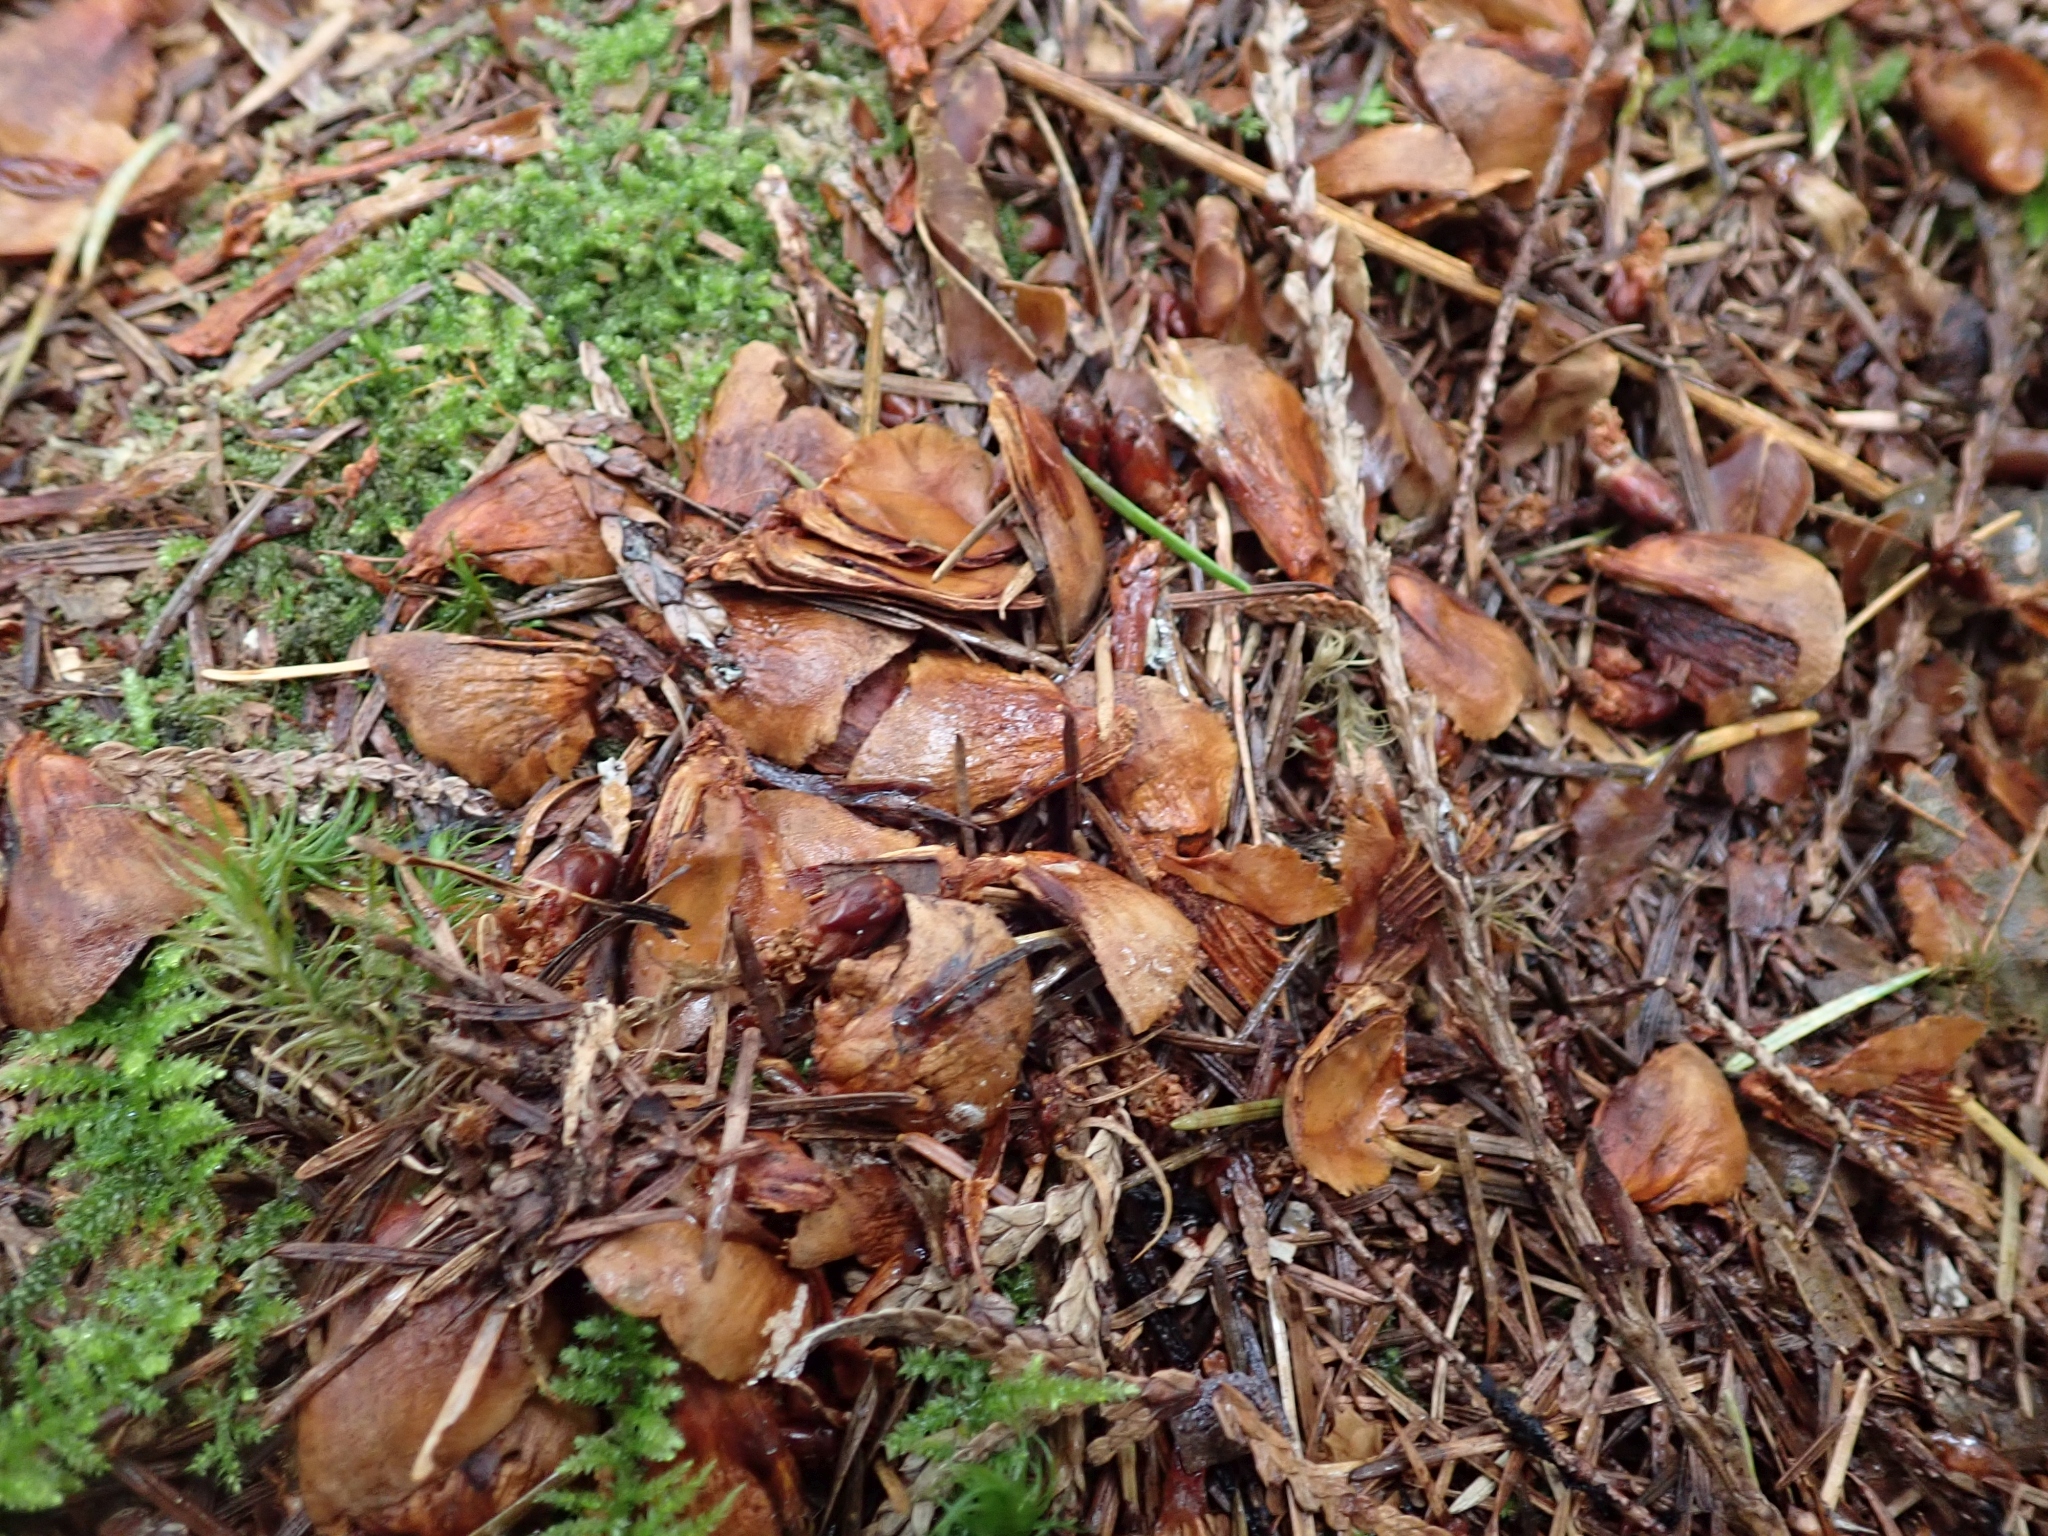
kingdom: Animalia
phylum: Chordata
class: Mammalia
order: Rodentia
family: Sciuridae
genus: Tamiasciurus
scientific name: Tamiasciurus hudsonicus
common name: Red squirrel
